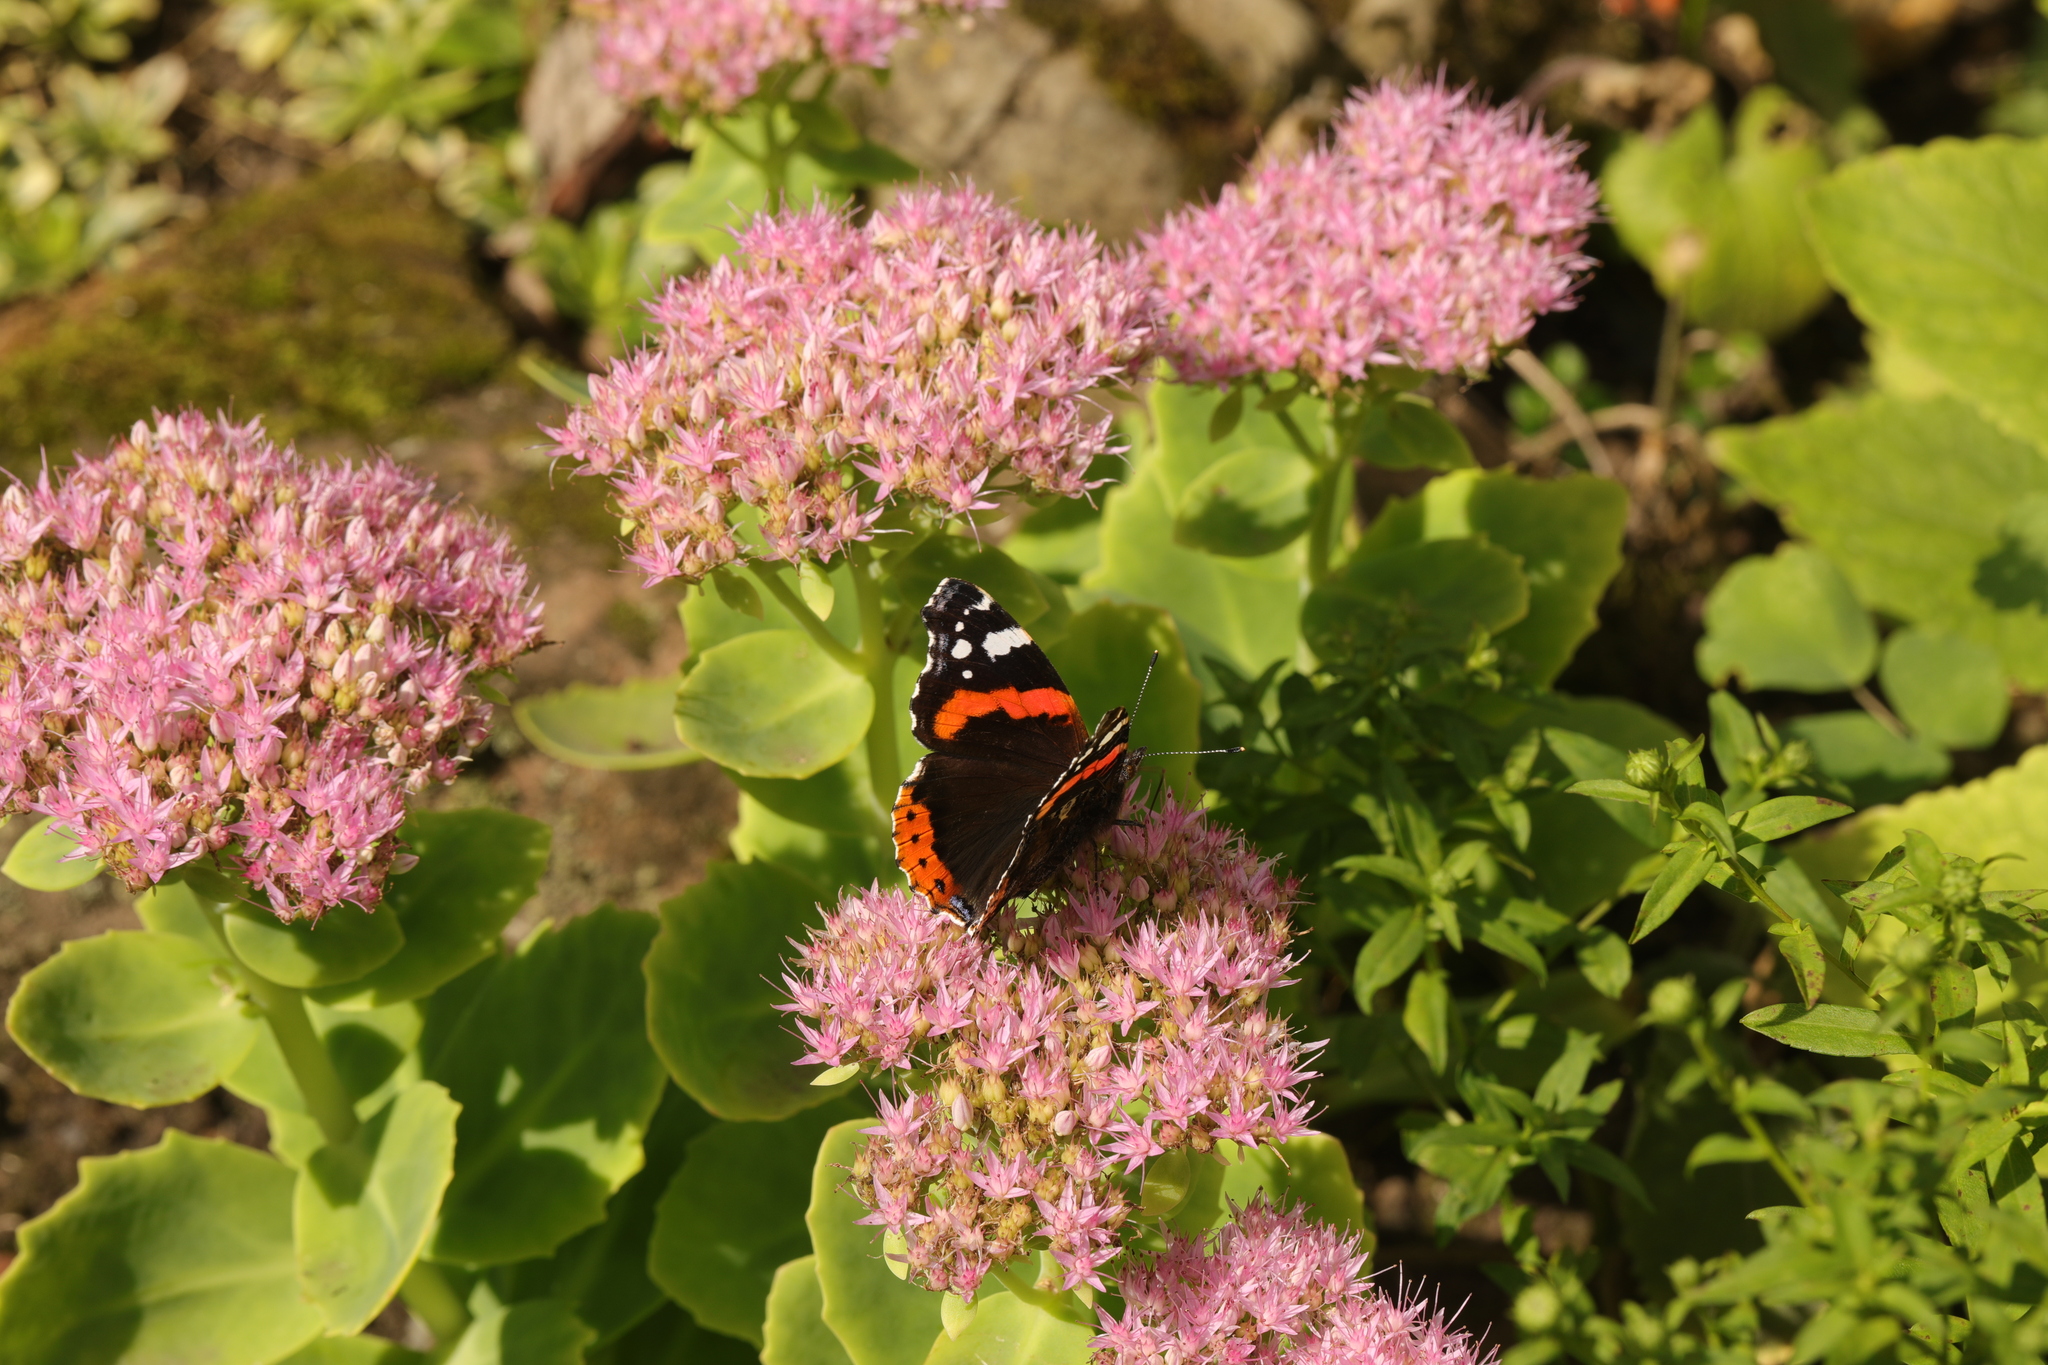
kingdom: Animalia
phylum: Arthropoda
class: Insecta
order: Lepidoptera
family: Nymphalidae
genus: Vanessa
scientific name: Vanessa atalanta
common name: Red admiral
